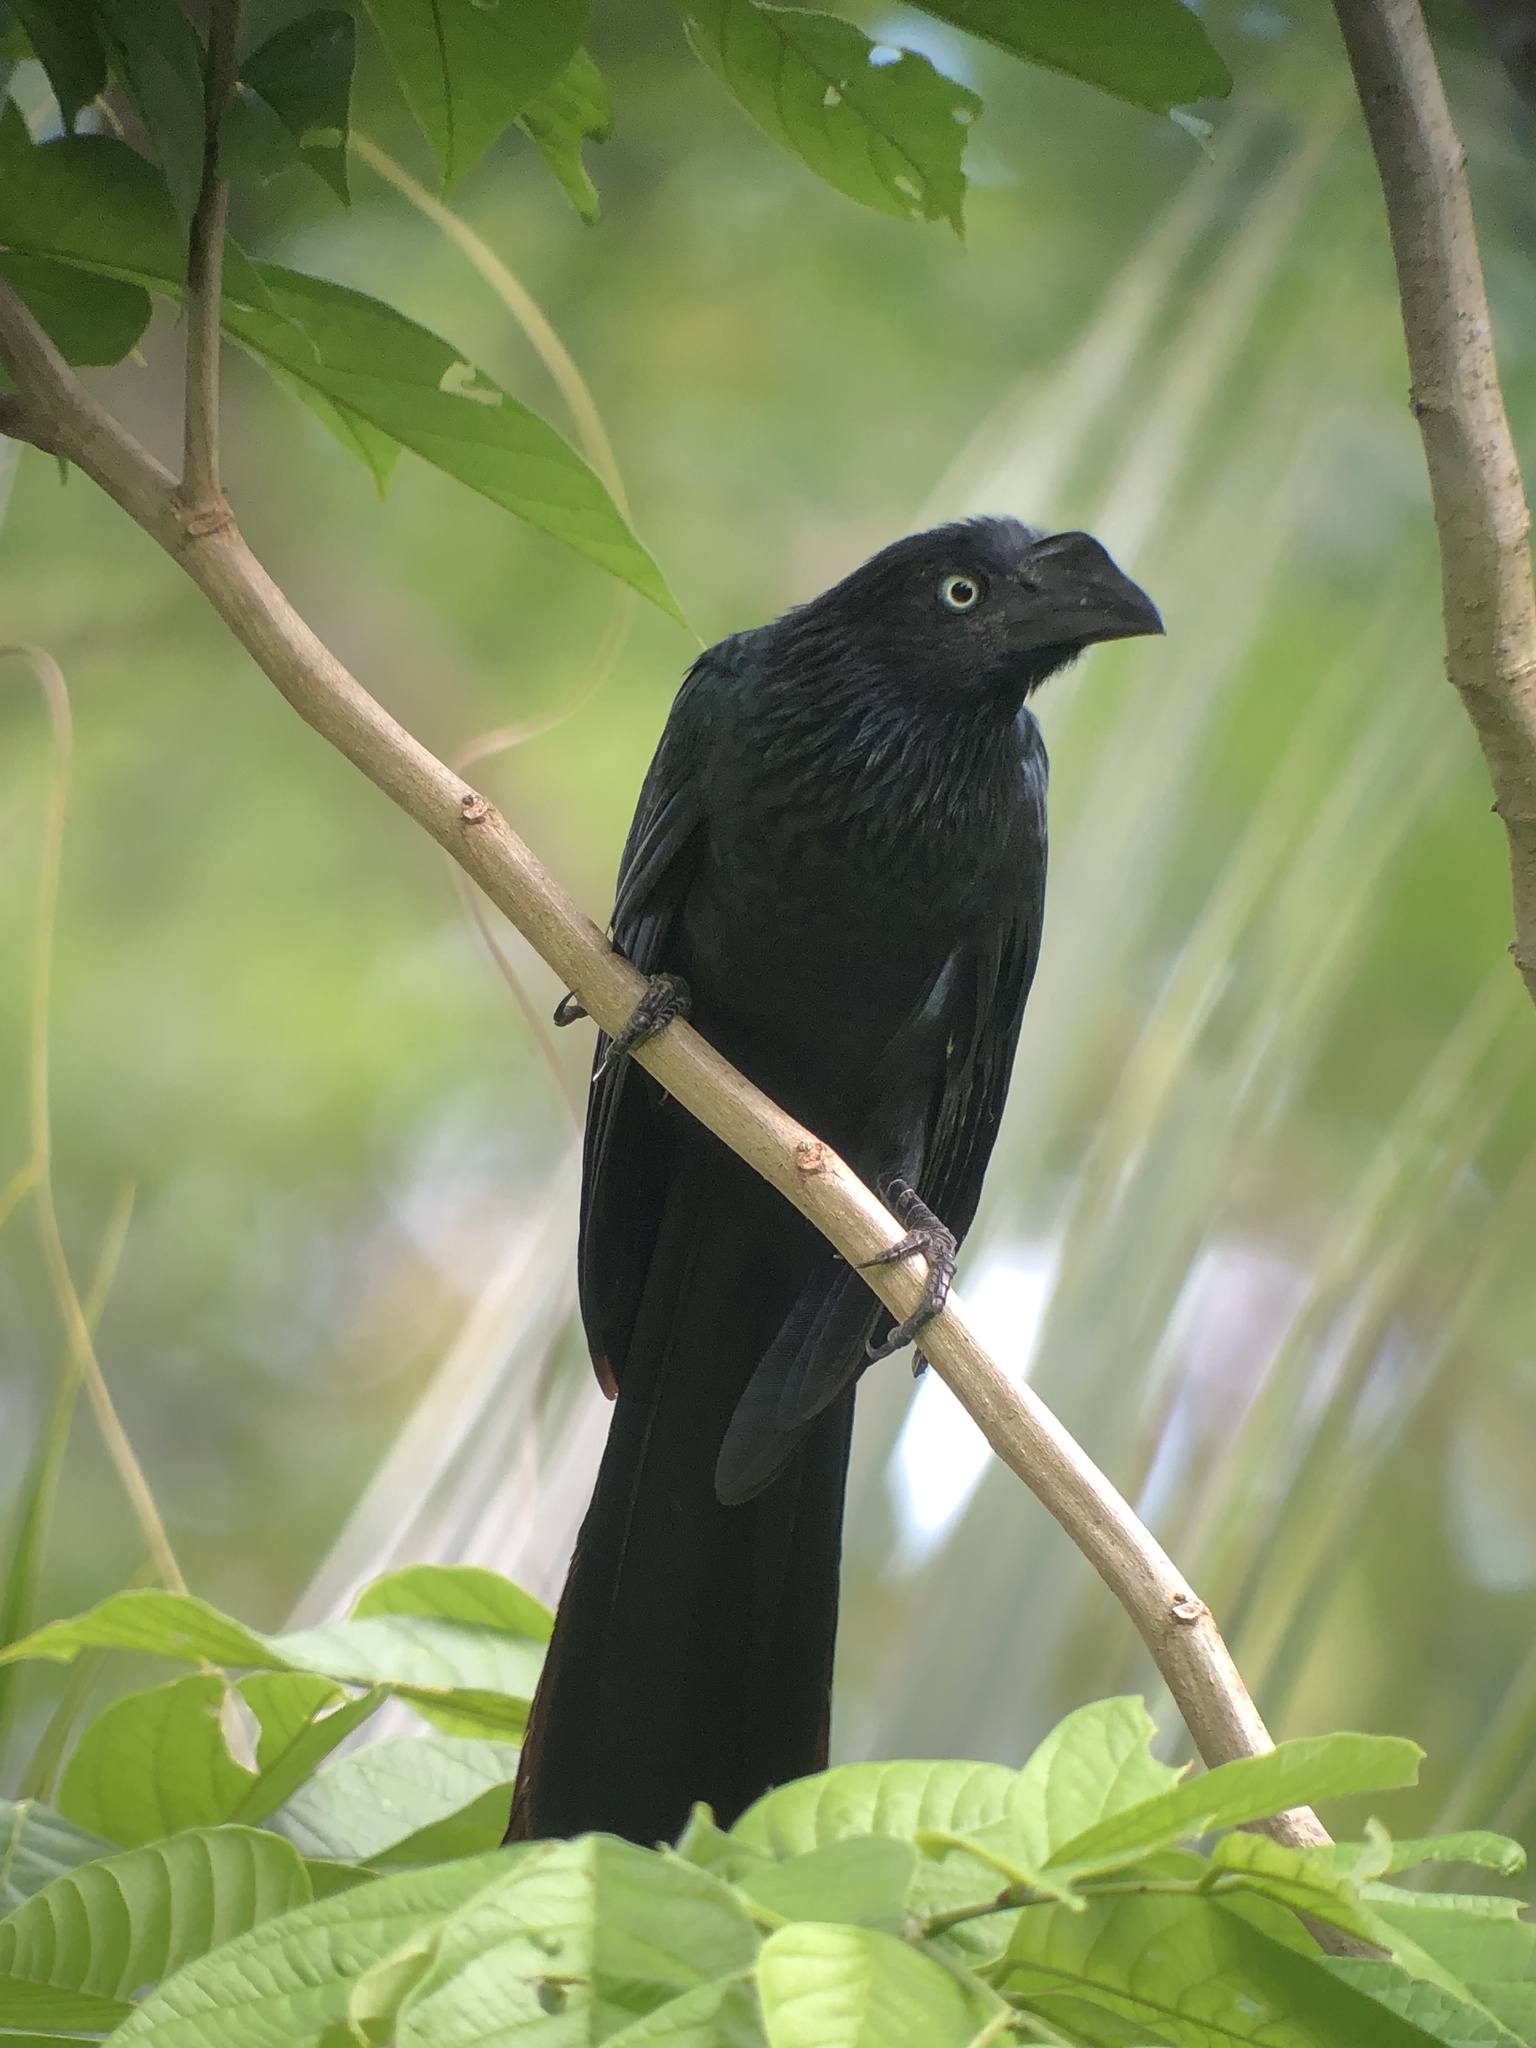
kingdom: Animalia
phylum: Chordata
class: Aves
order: Cuculiformes
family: Cuculidae
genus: Crotophaga
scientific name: Crotophaga major
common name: Greater ani
